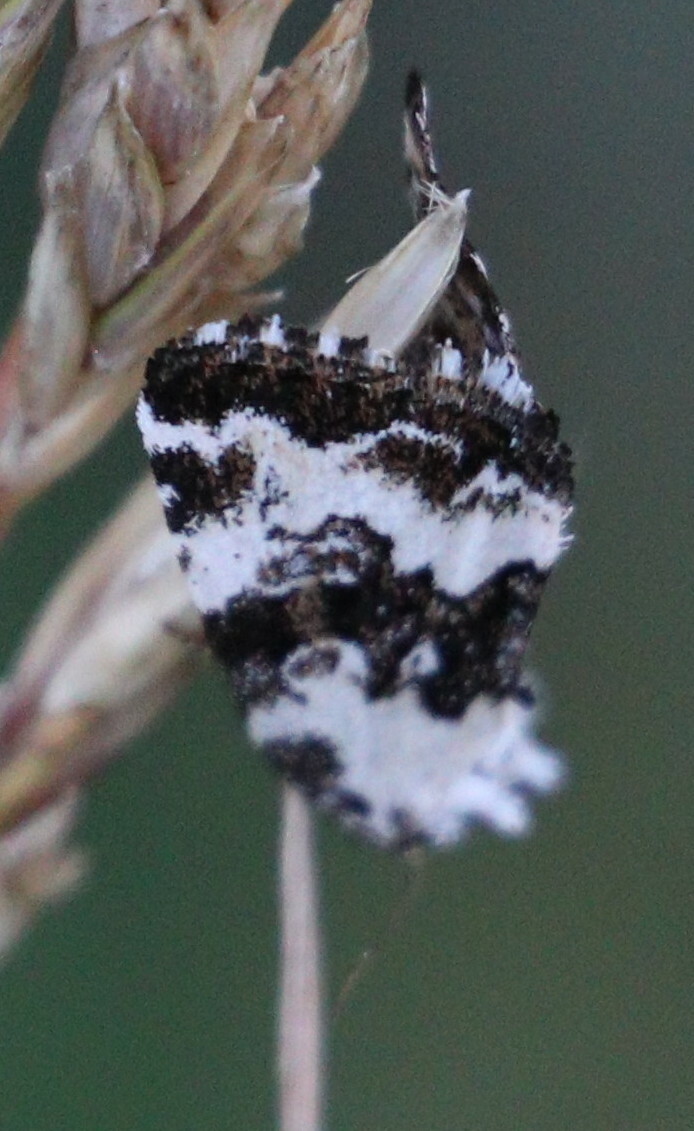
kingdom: Animalia
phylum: Arthropoda
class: Insecta
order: Lepidoptera
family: Noctuidae
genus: Deltote
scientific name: Deltote deceptoria
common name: Pretty marbled
